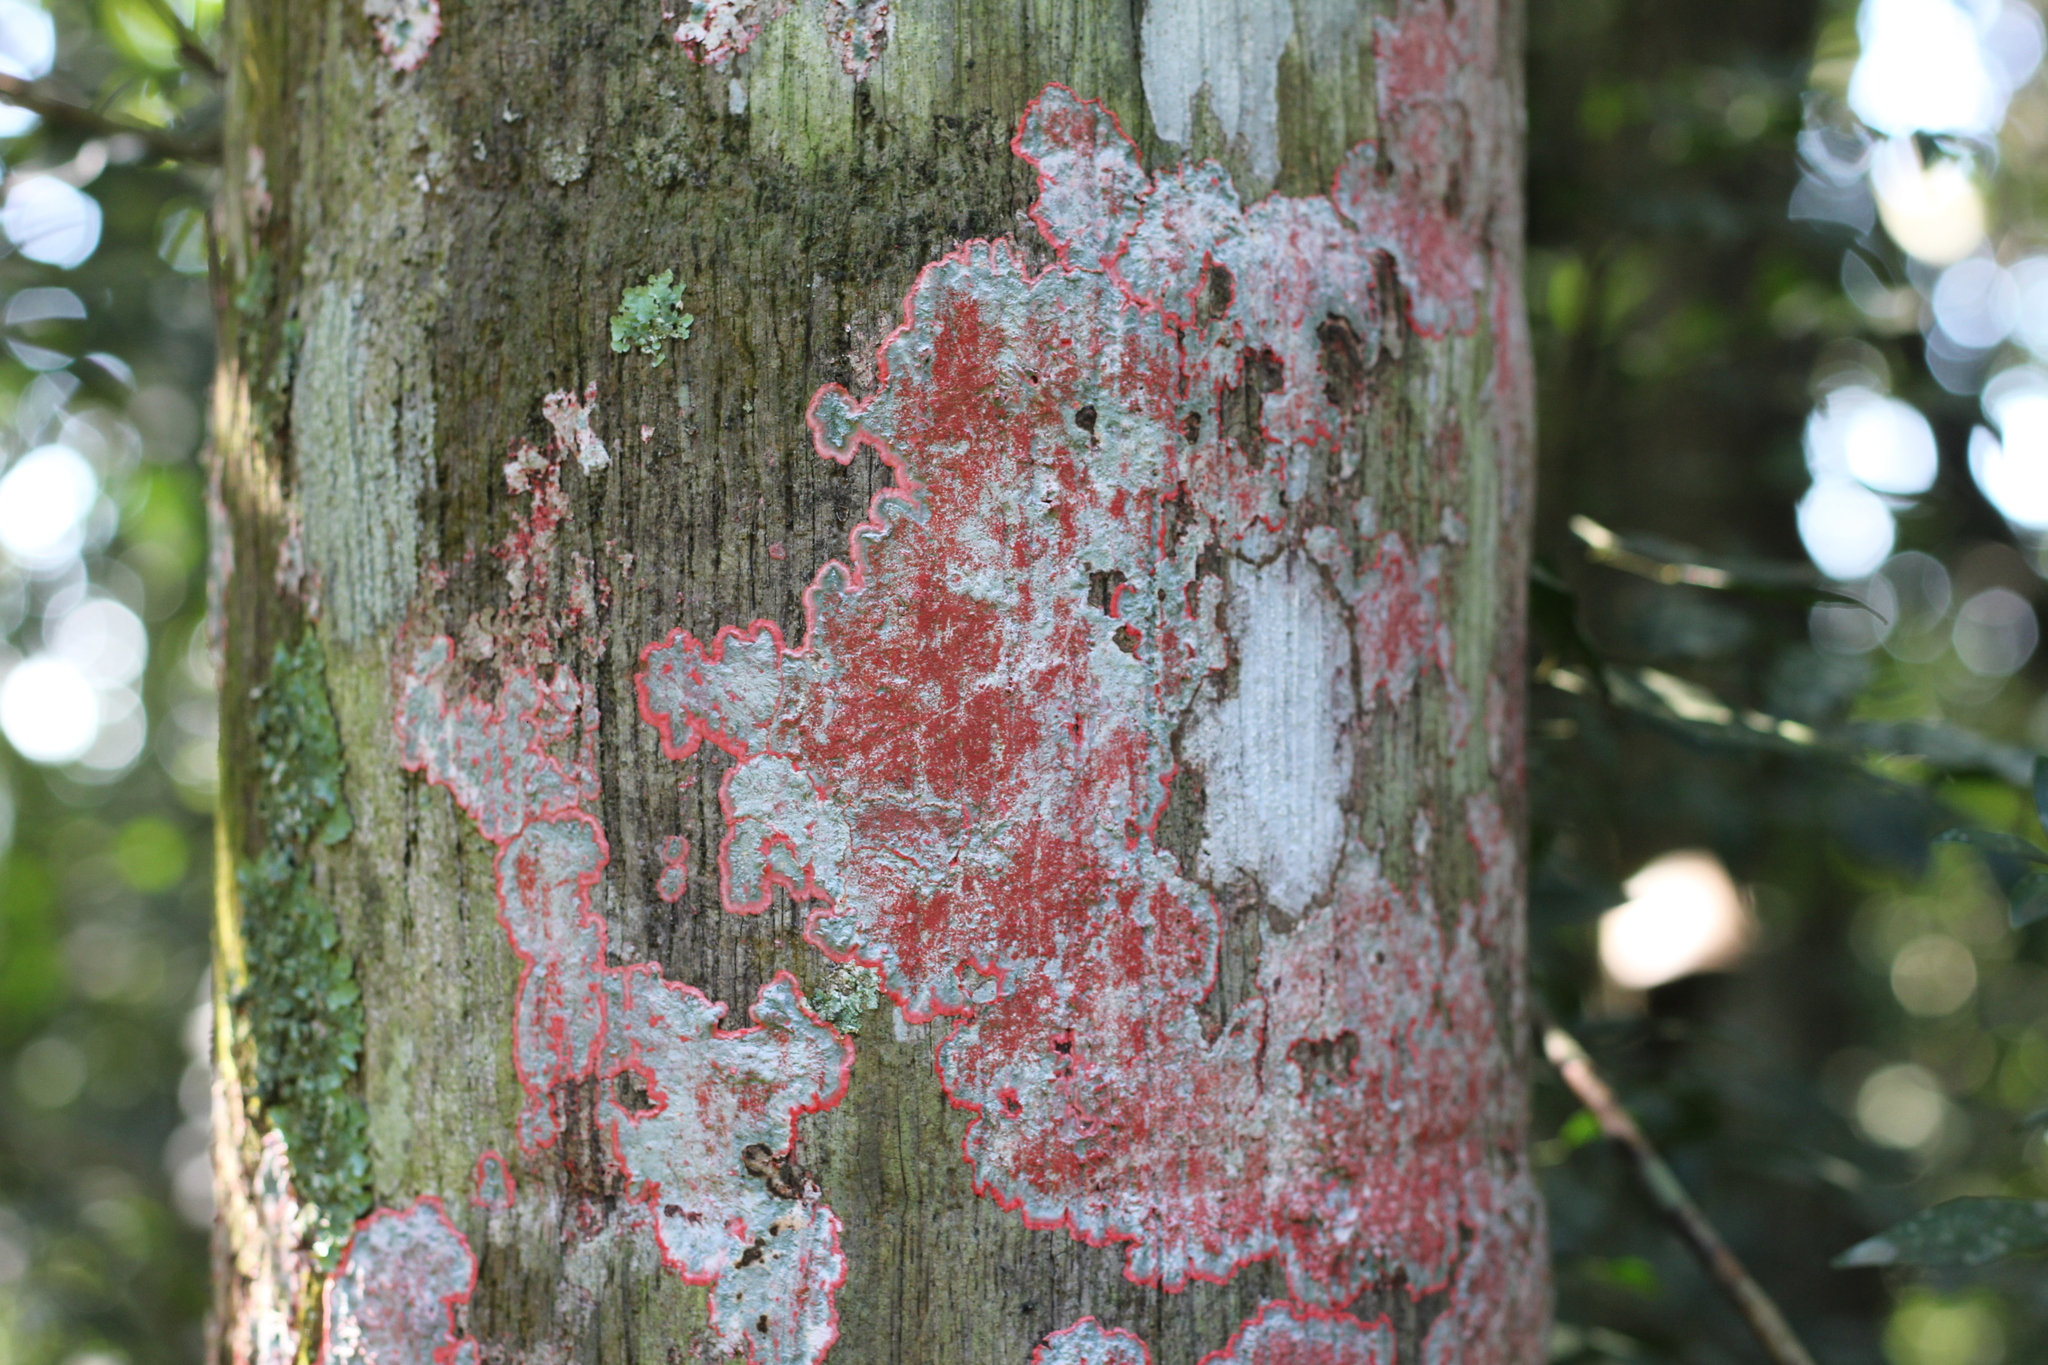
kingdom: Fungi
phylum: Ascomycota
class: Arthoniomycetes
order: Arthoniales
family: Arthoniaceae
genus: Herpothallon
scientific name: Herpothallon rubrocinctum
